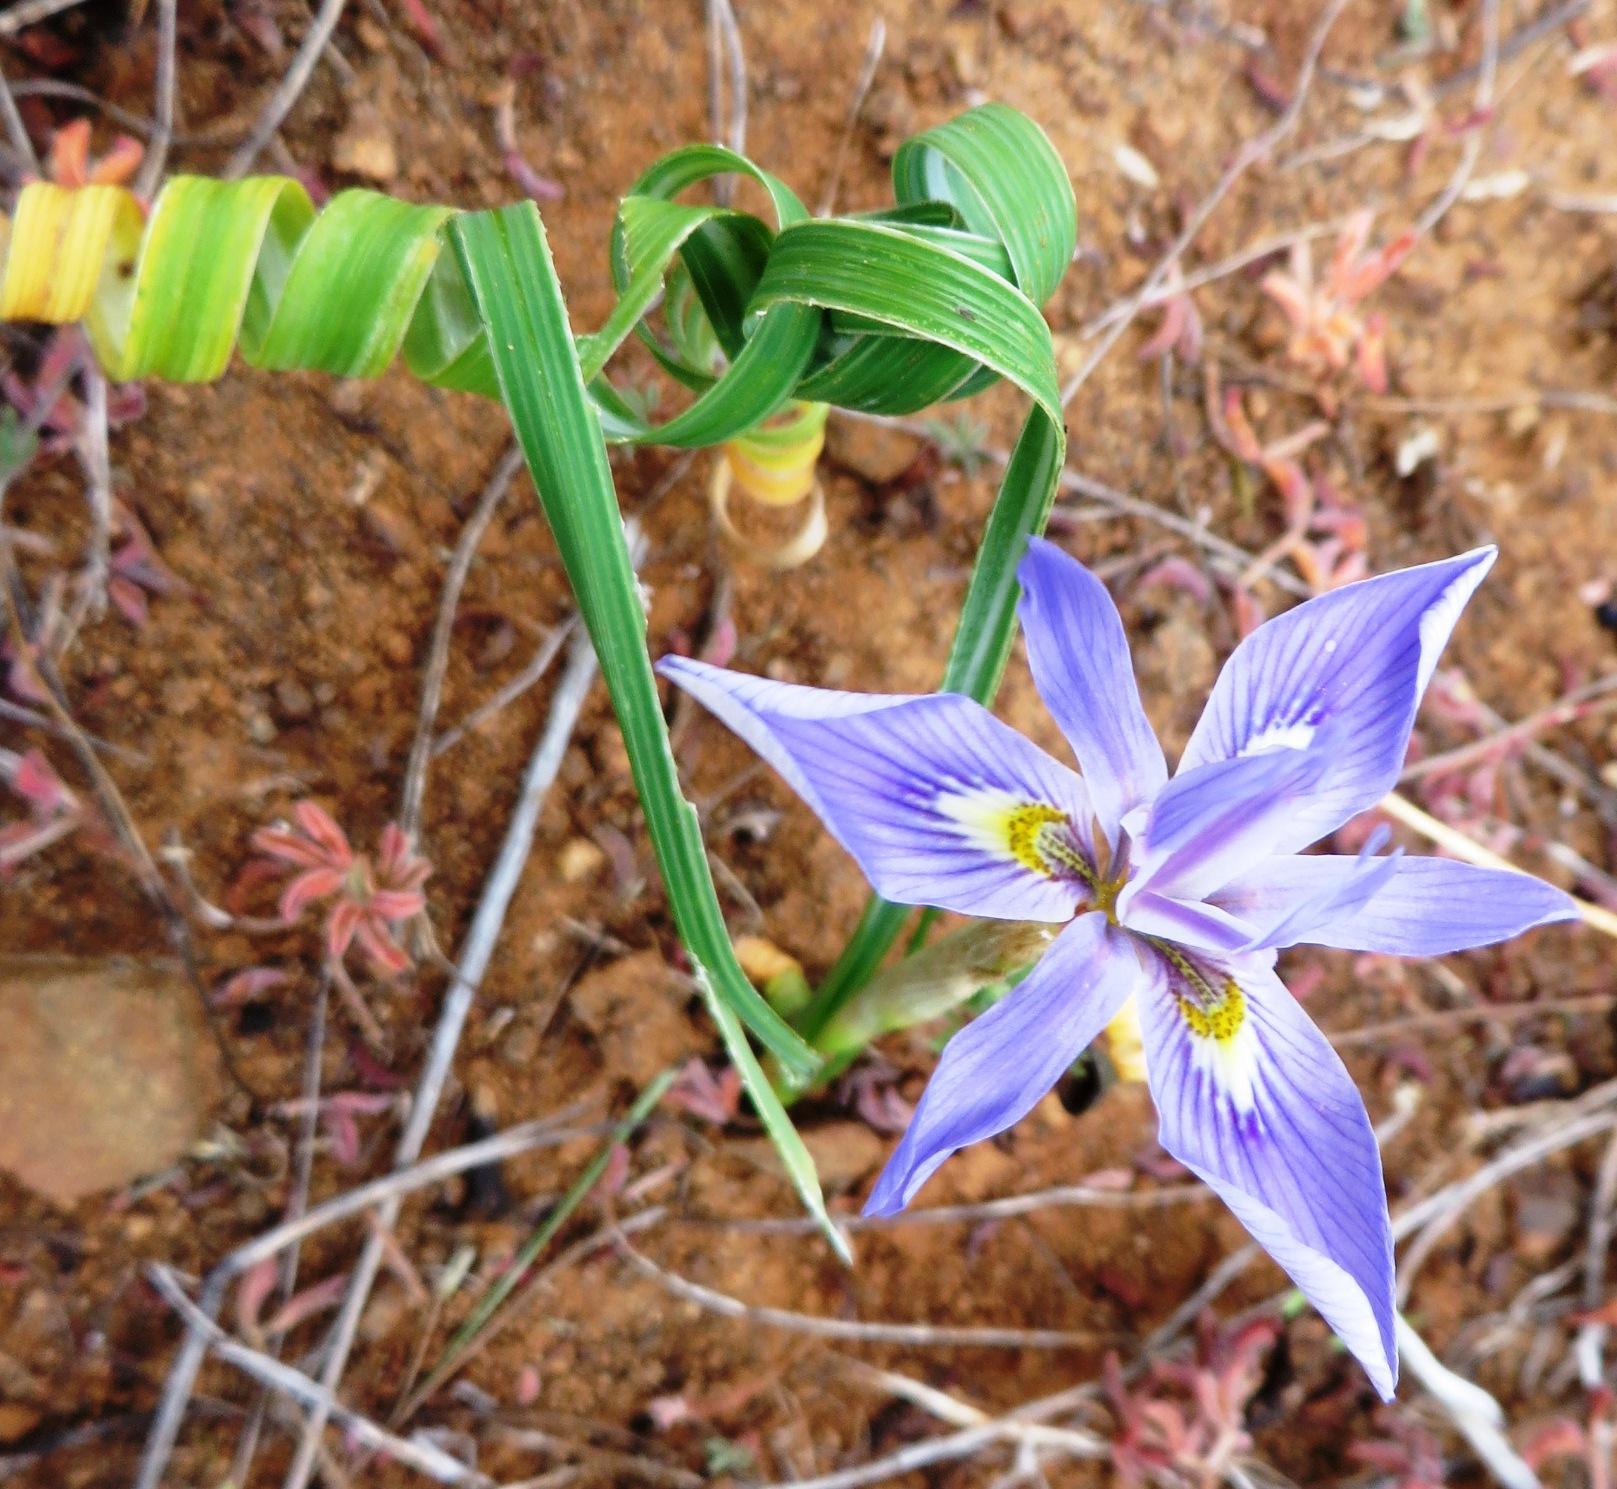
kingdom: Plantae
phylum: Tracheophyta
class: Liliopsida
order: Asparagales
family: Iridaceae
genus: Moraea
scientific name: Moraea pritzeliana
